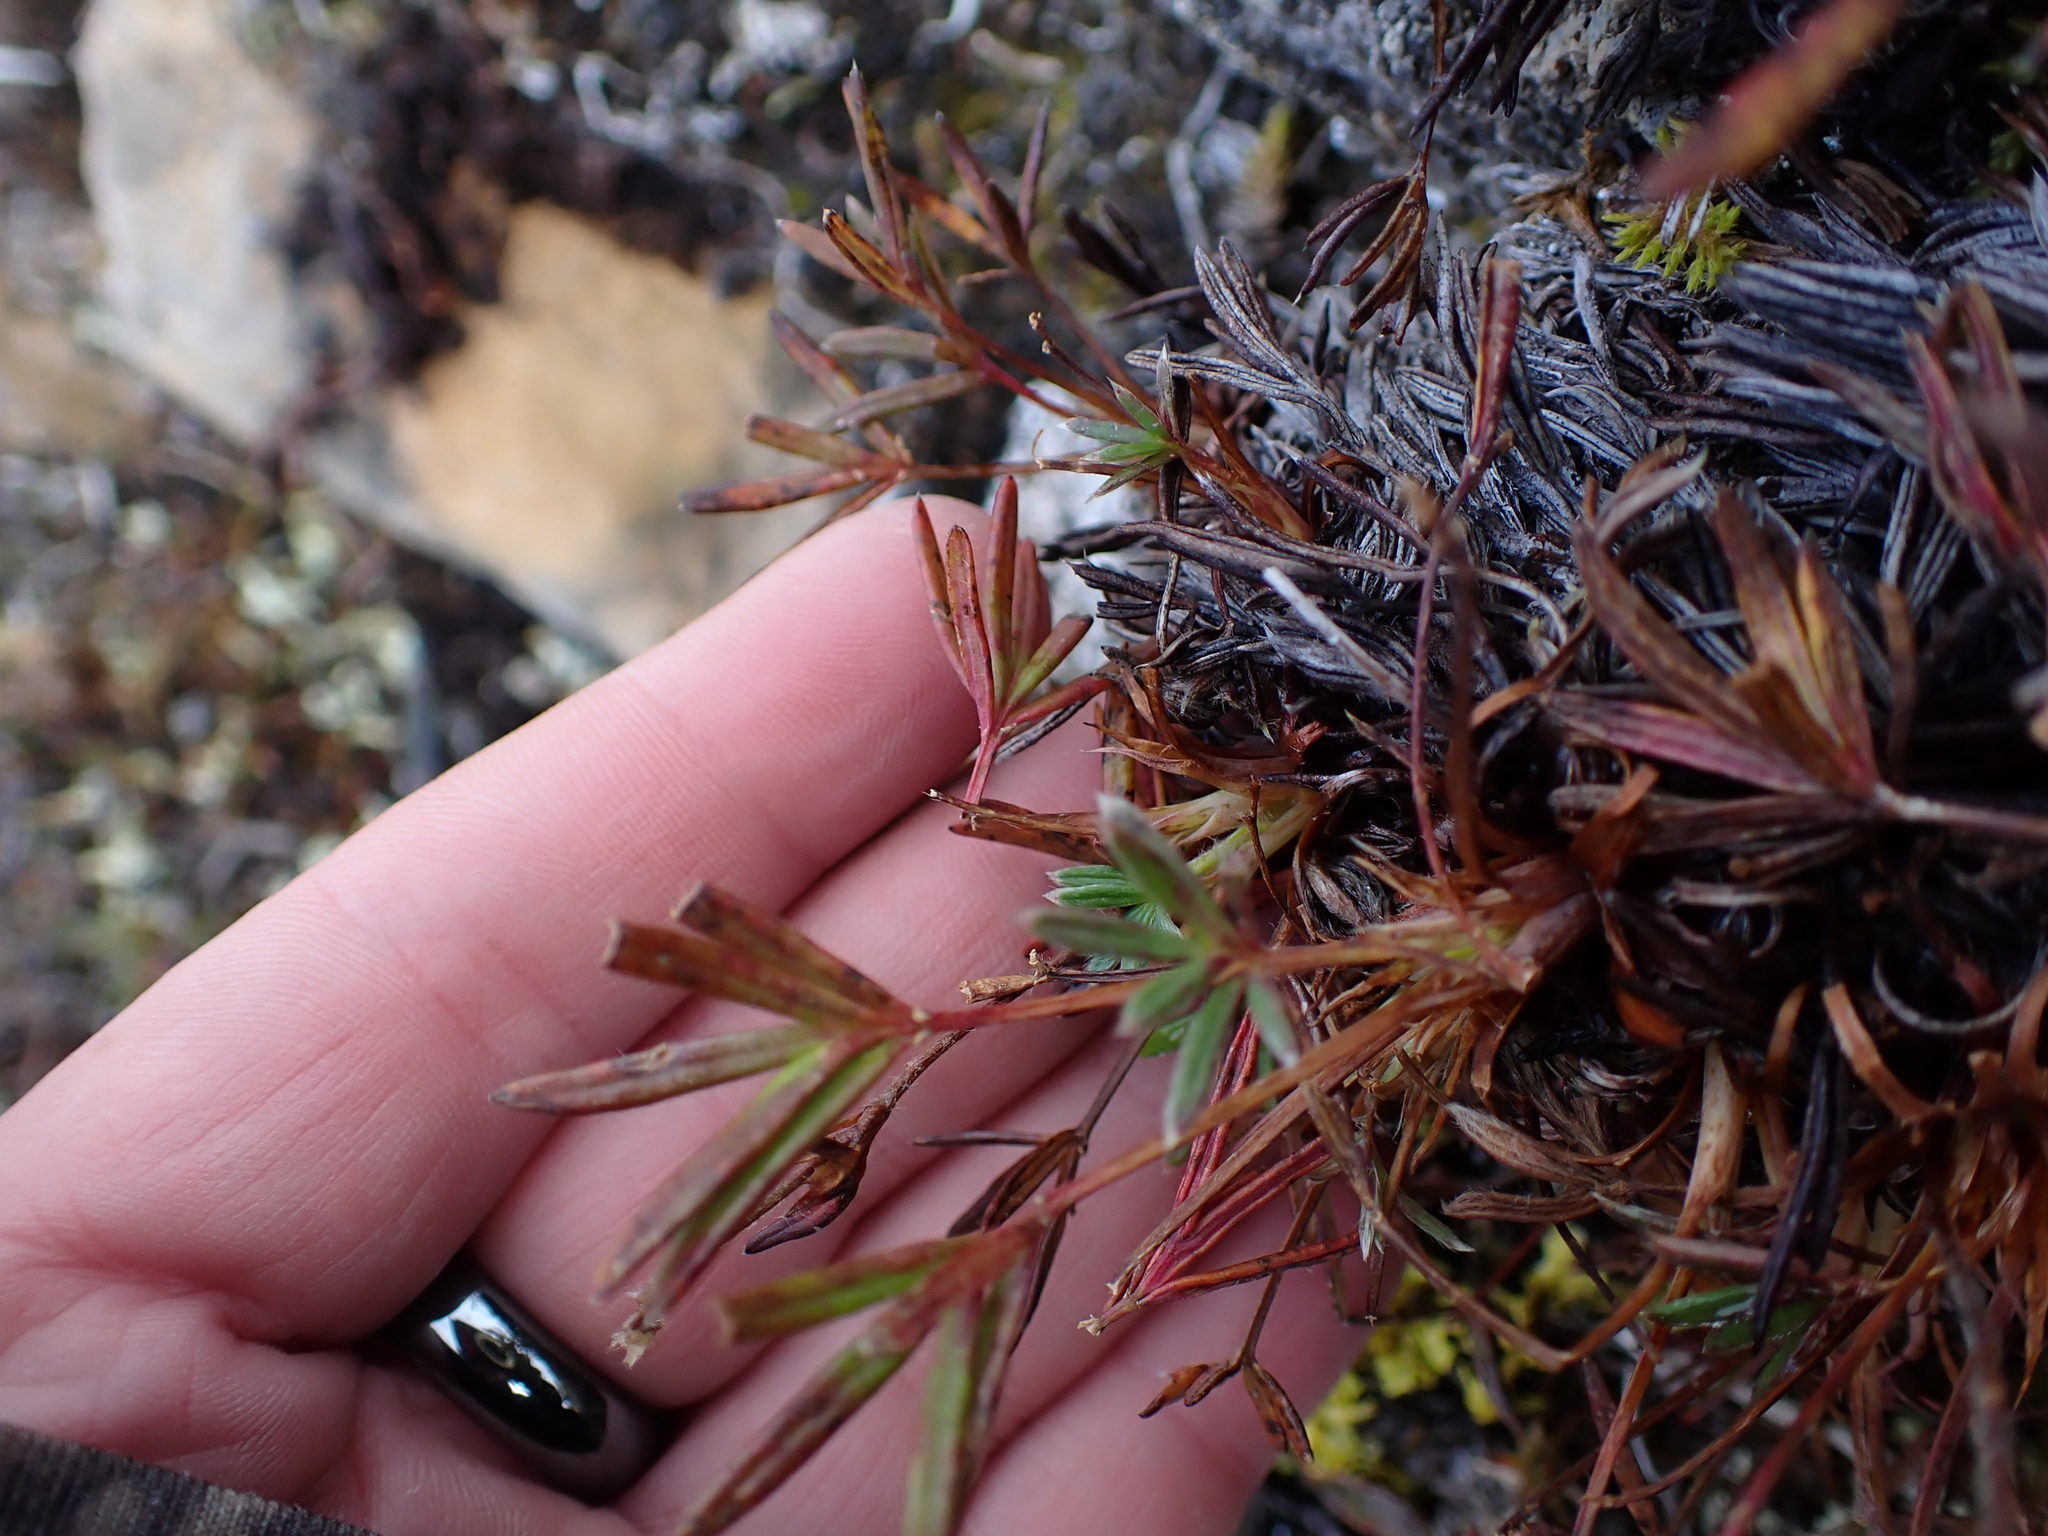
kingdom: Plantae
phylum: Tracheophyta
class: Magnoliopsida
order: Rosales
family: Rosaceae
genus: Potentilla
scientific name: Potentilla biflora
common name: Two-flowered cinquefoil
